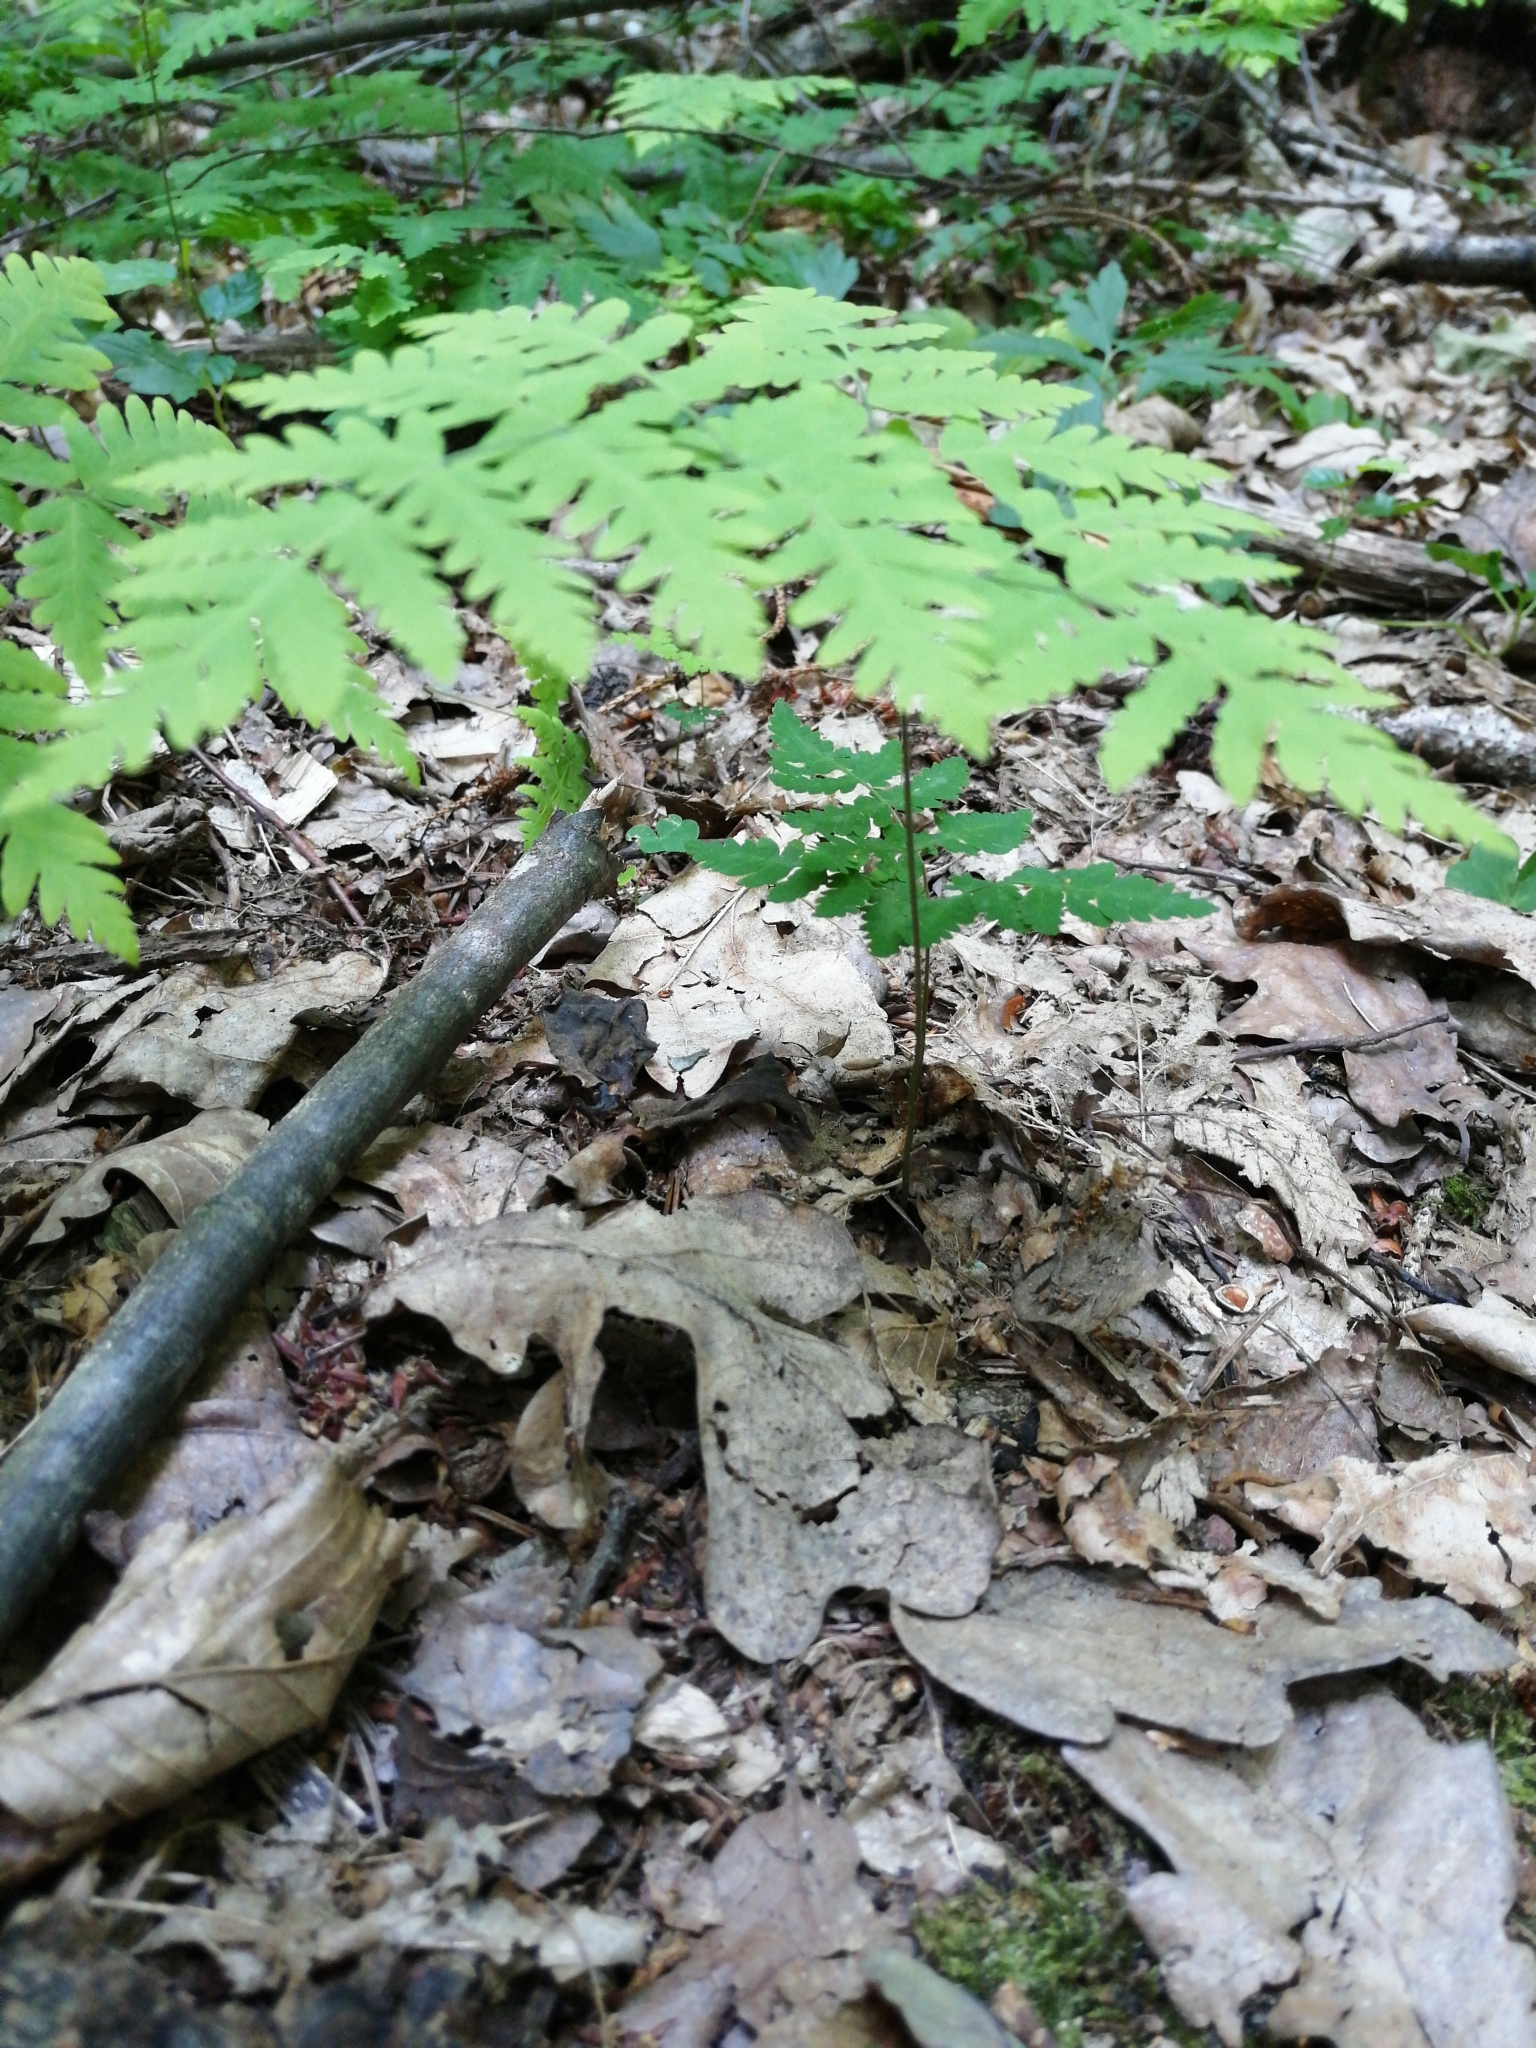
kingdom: Plantae
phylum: Tracheophyta
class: Polypodiopsida
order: Polypodiales
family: Cystopteridaceae
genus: Gymnocarpium
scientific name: Gymnocarpium dryopteris
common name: Oak fern
